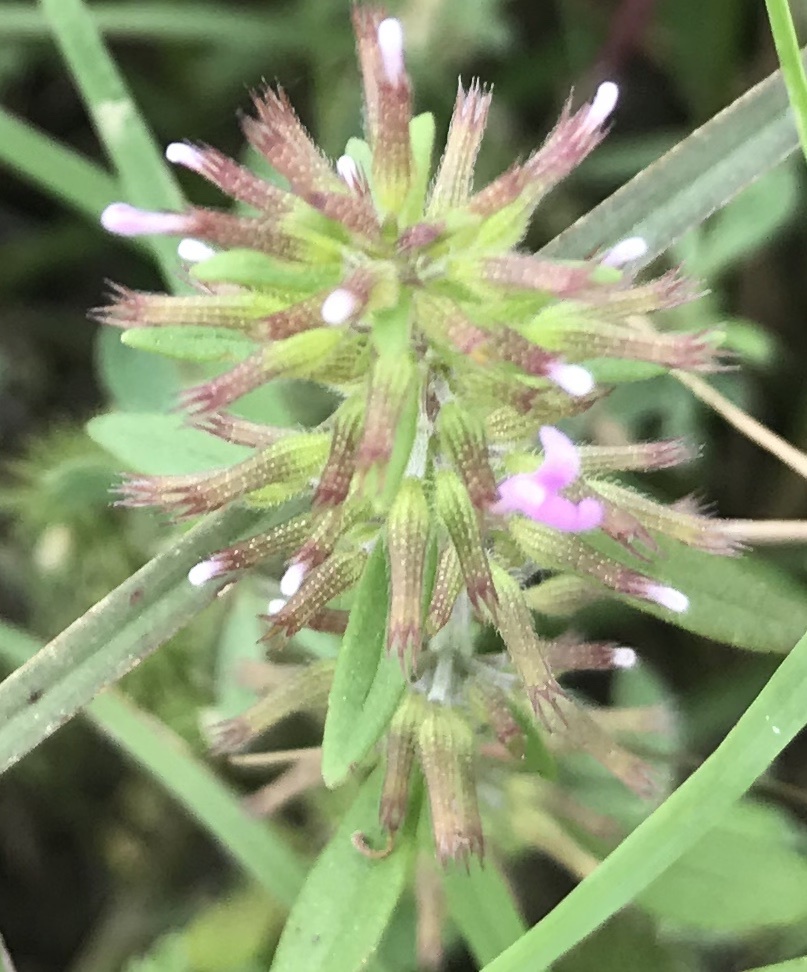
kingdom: Plantae
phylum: Tracheophyta
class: Magnoliopsida
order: Lamiales
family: Lamiaceae
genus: Hedeoma
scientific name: Hedeoma acinoides
